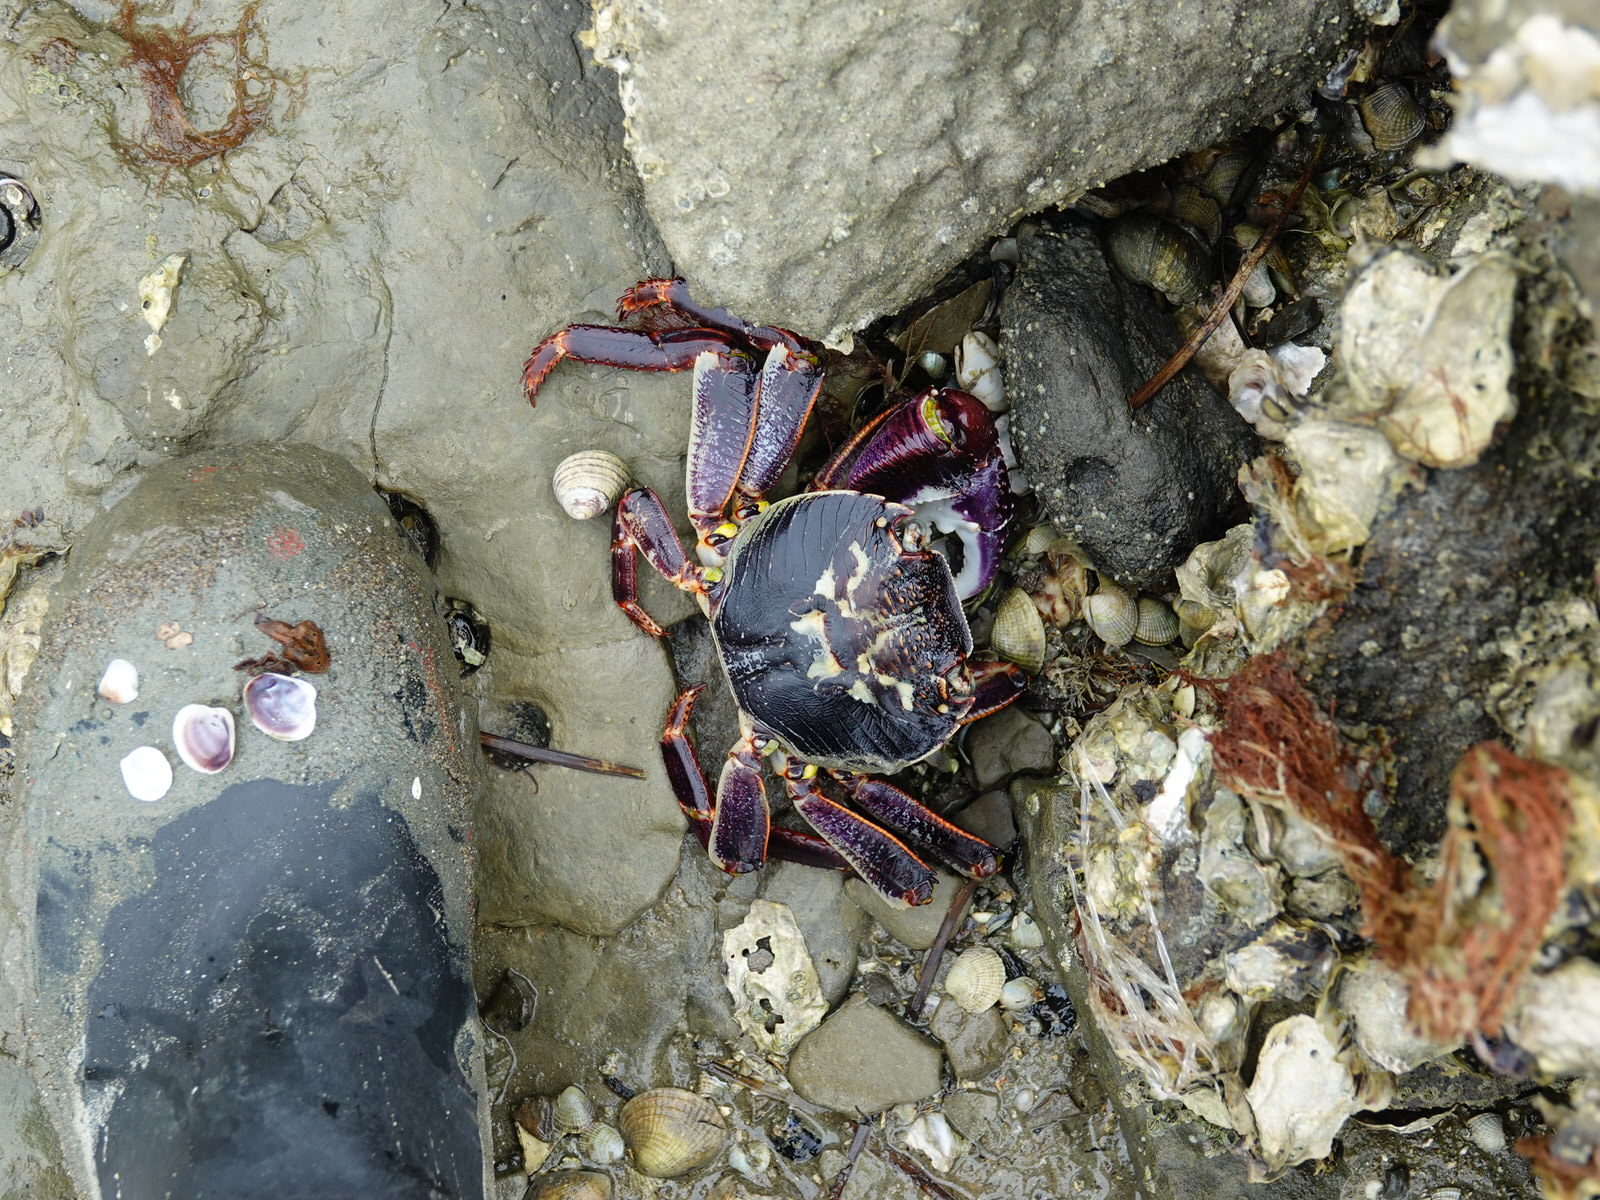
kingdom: Animalia
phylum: Arthropoda
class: Malacostraca
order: Decapoda
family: Grapsidae
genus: Leptograpsus
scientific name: Leptograpsus variegatus
